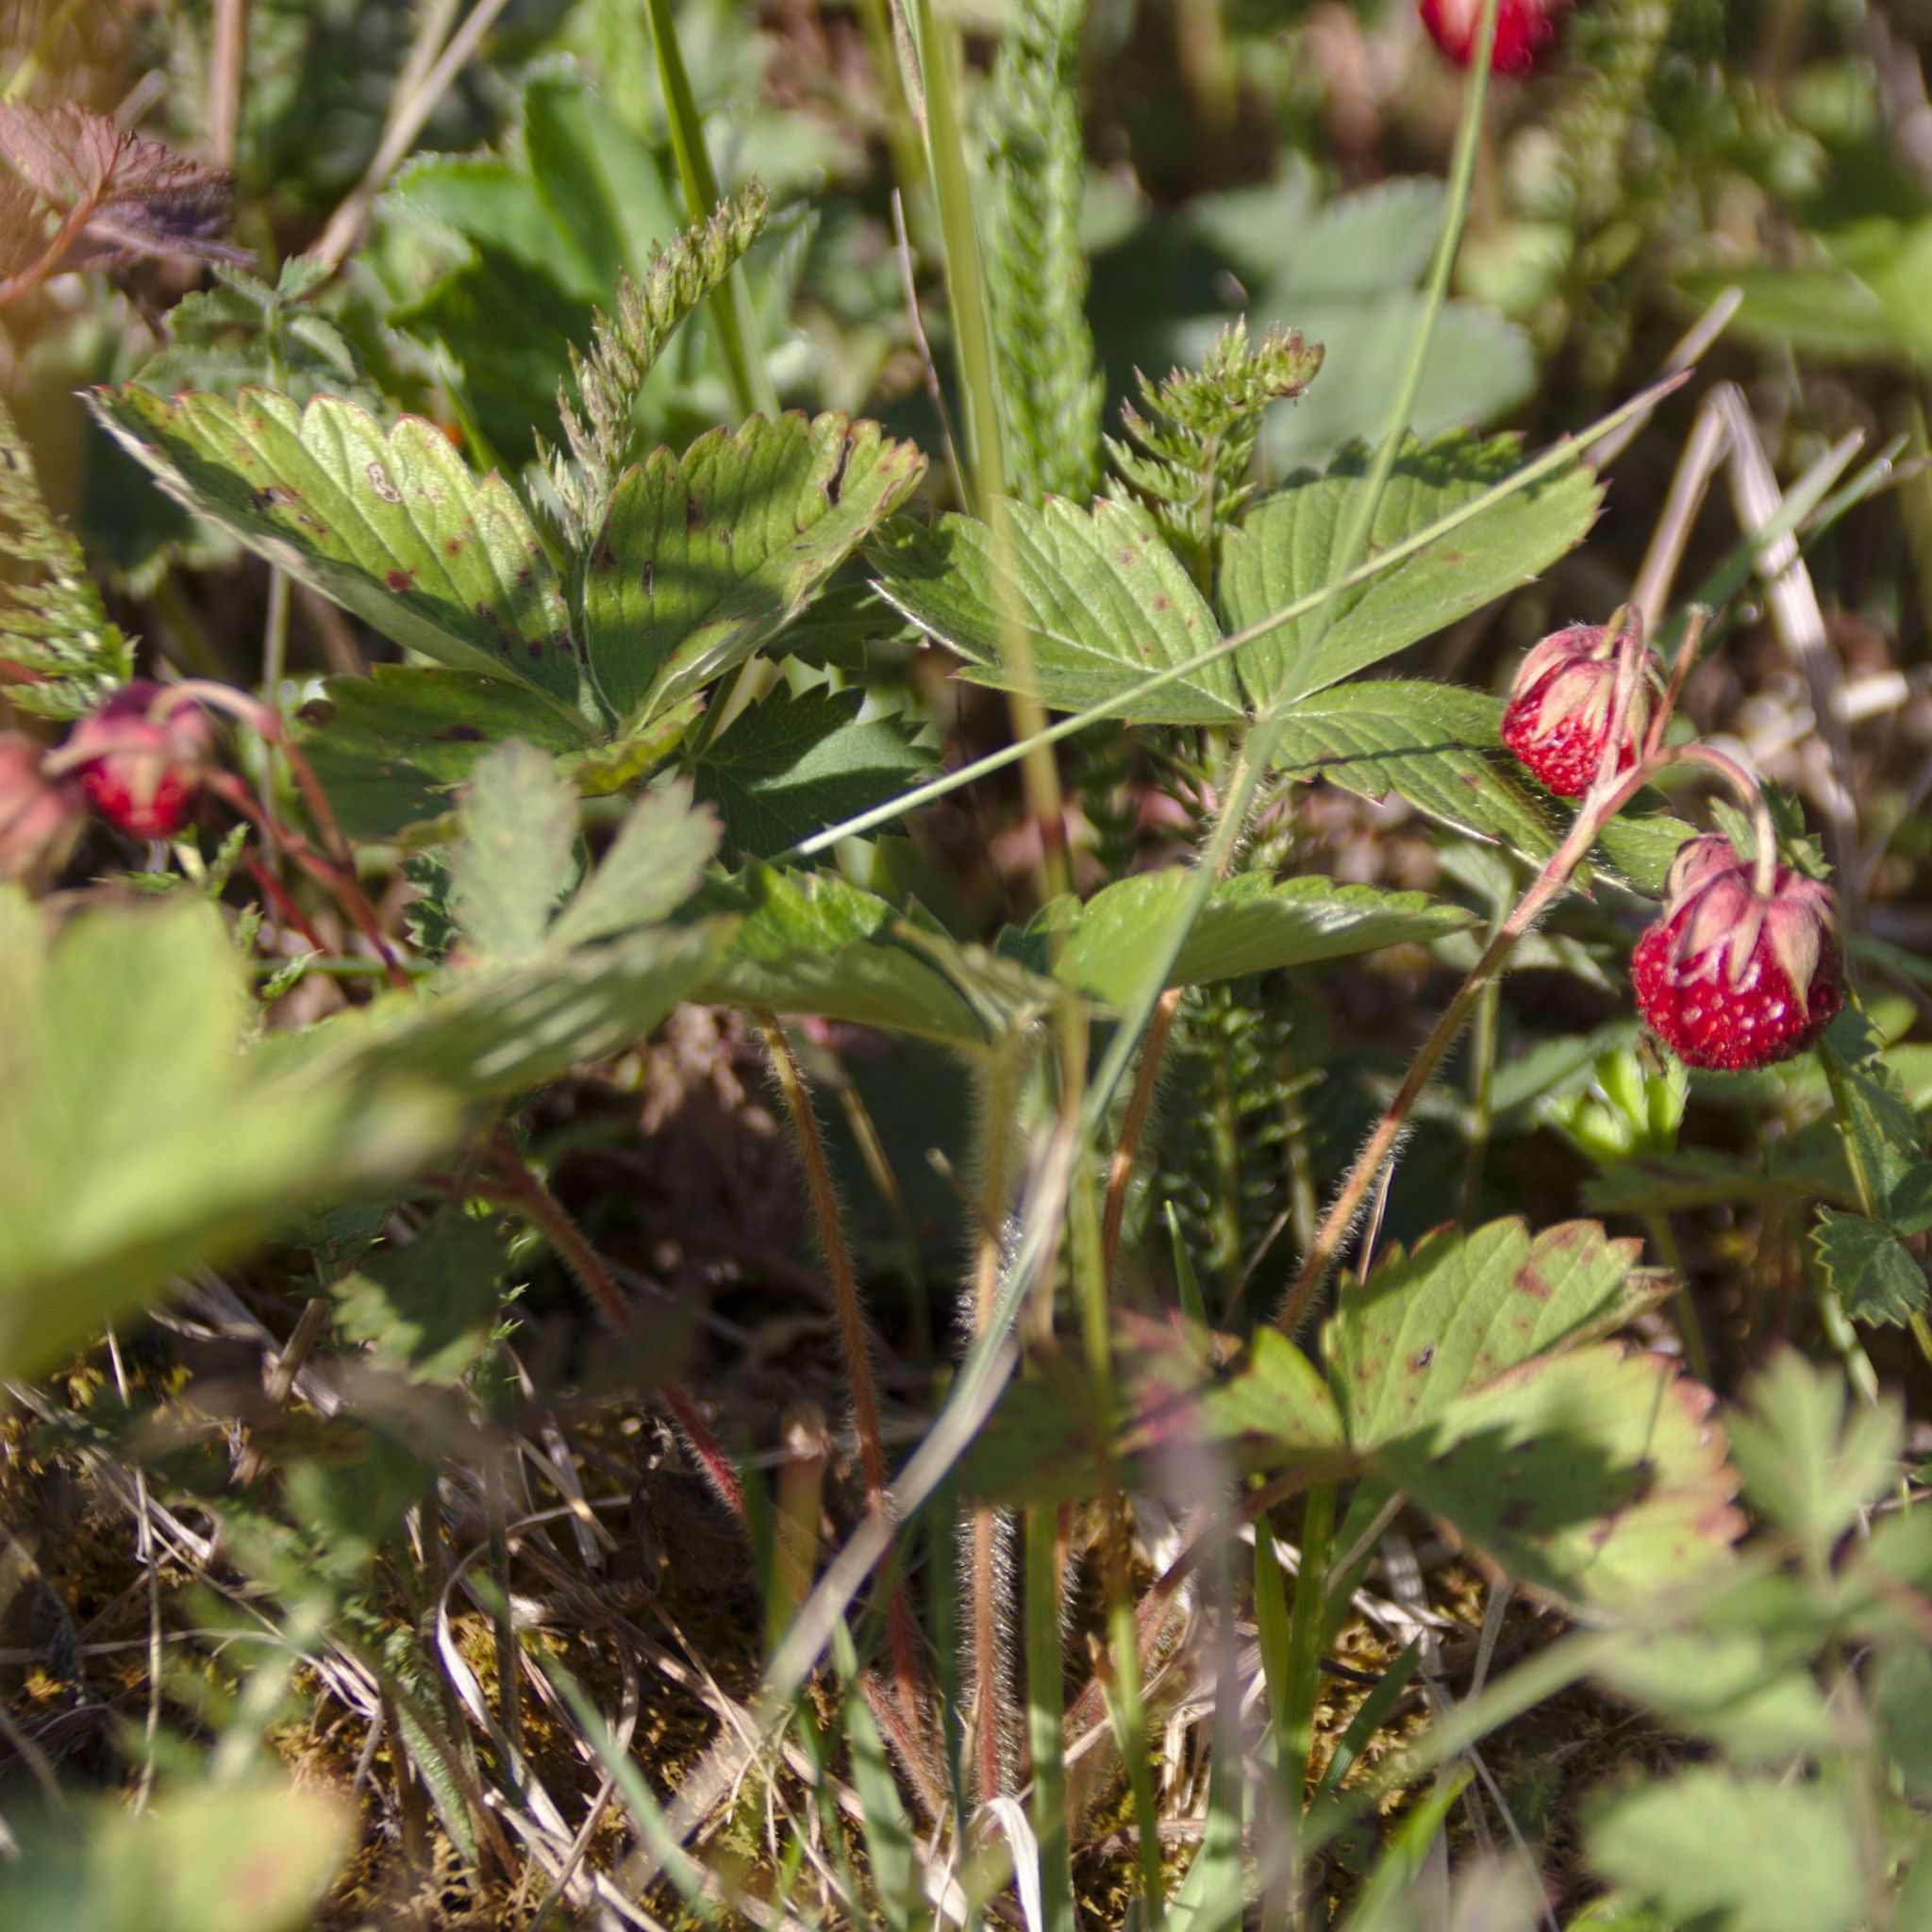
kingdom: Plantae
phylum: Tracheophyta
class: Magnoliopsida
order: Rosales
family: Rosaceae
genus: Fragaria
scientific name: Fragaria viridis
